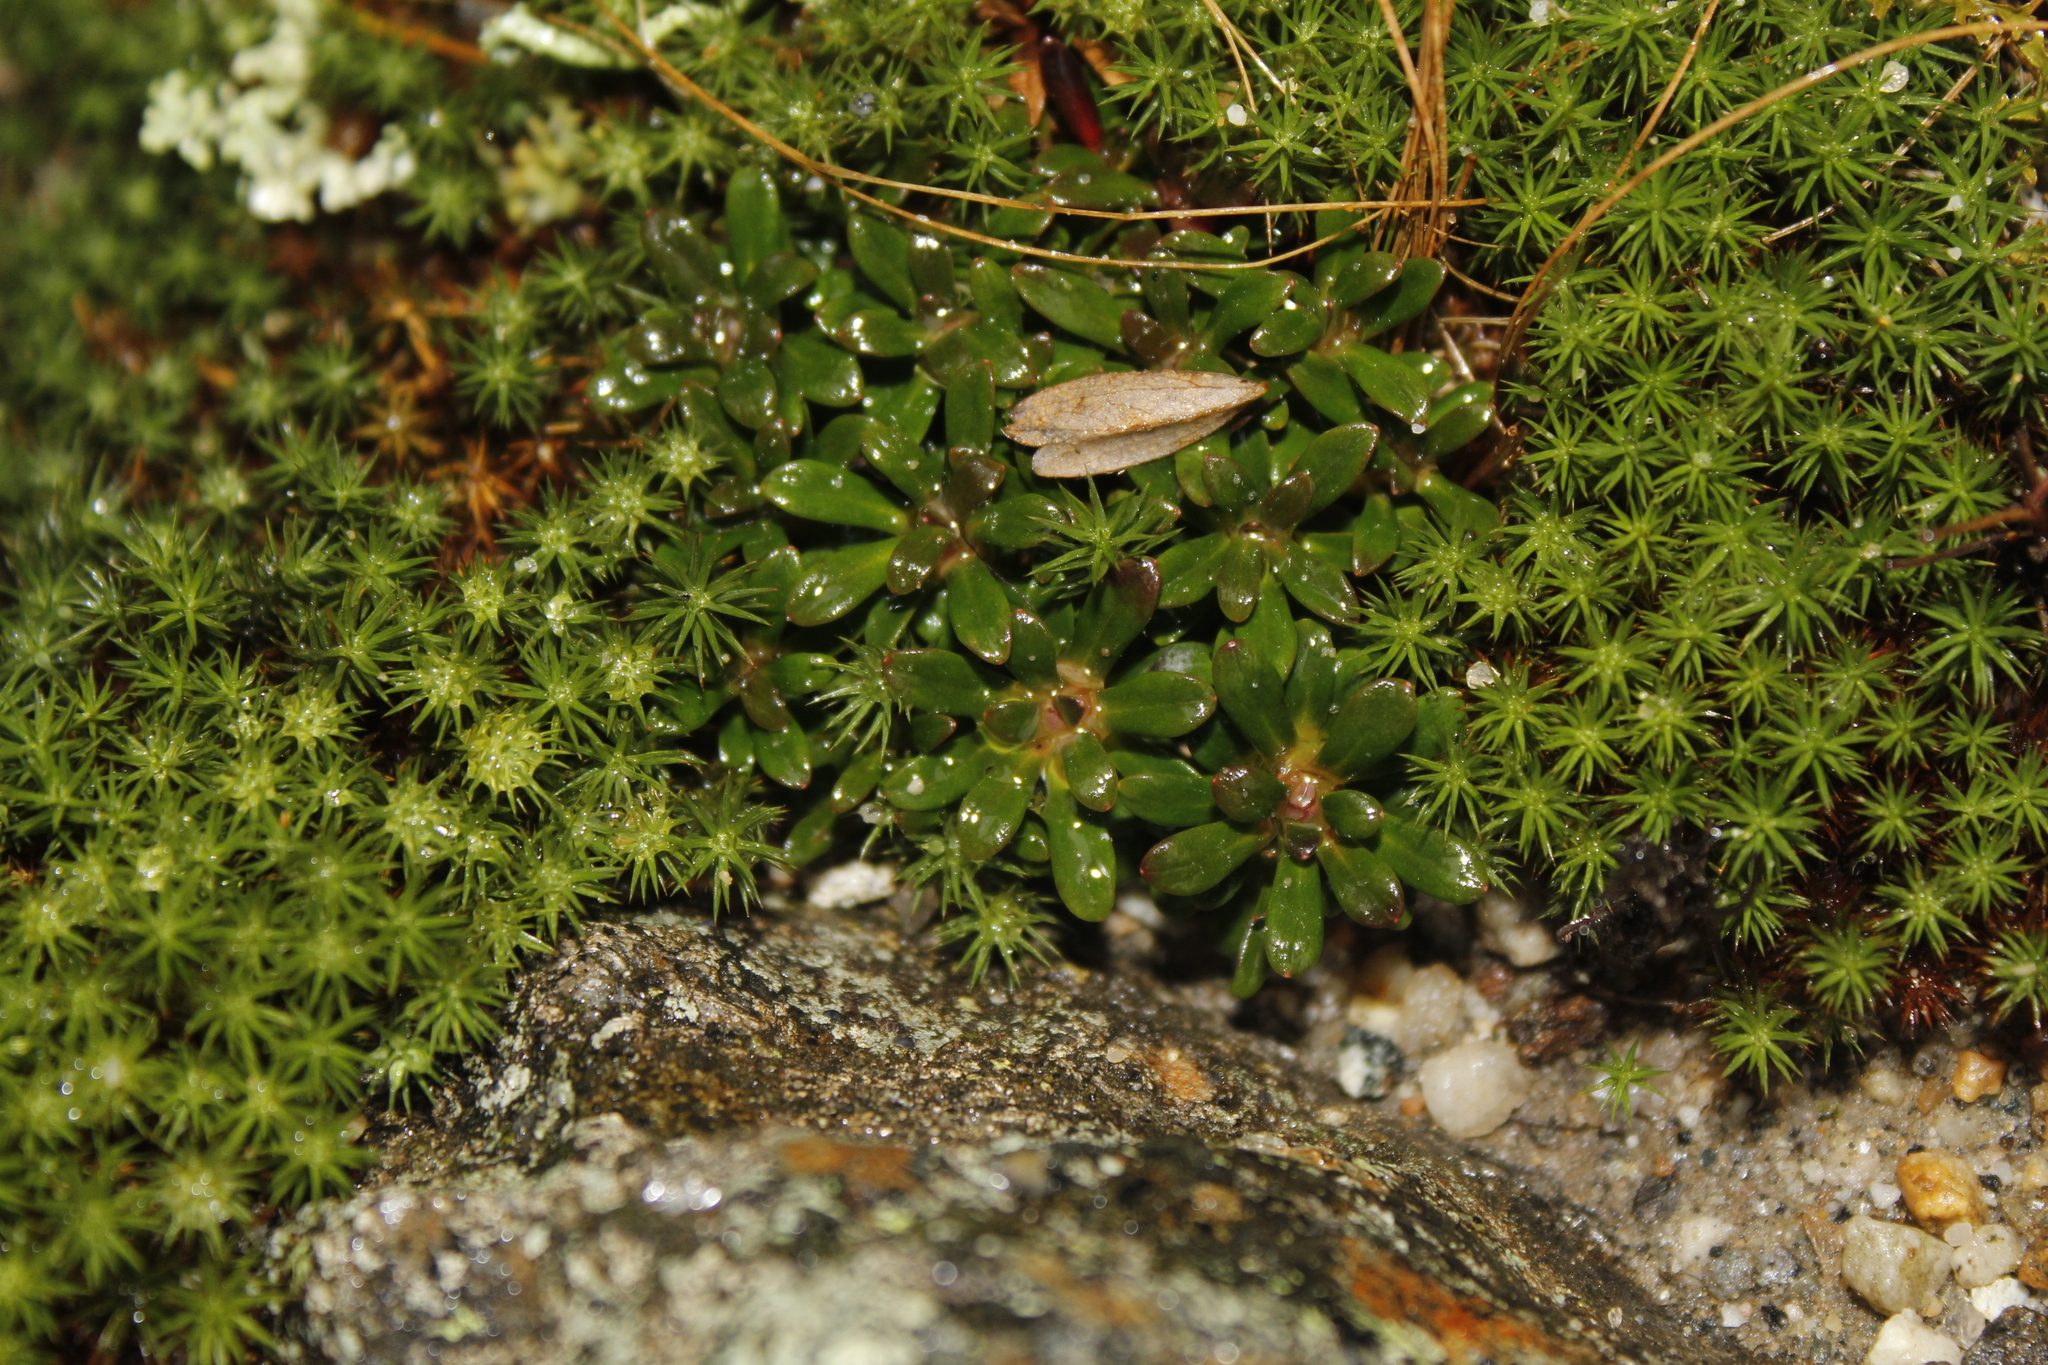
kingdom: Plantae
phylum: Tracheophyta
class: Magnoliopsida
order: Ericales
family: Diapensiaceae
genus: Diapensia
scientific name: Diapensia lapponica
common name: Diapensia
